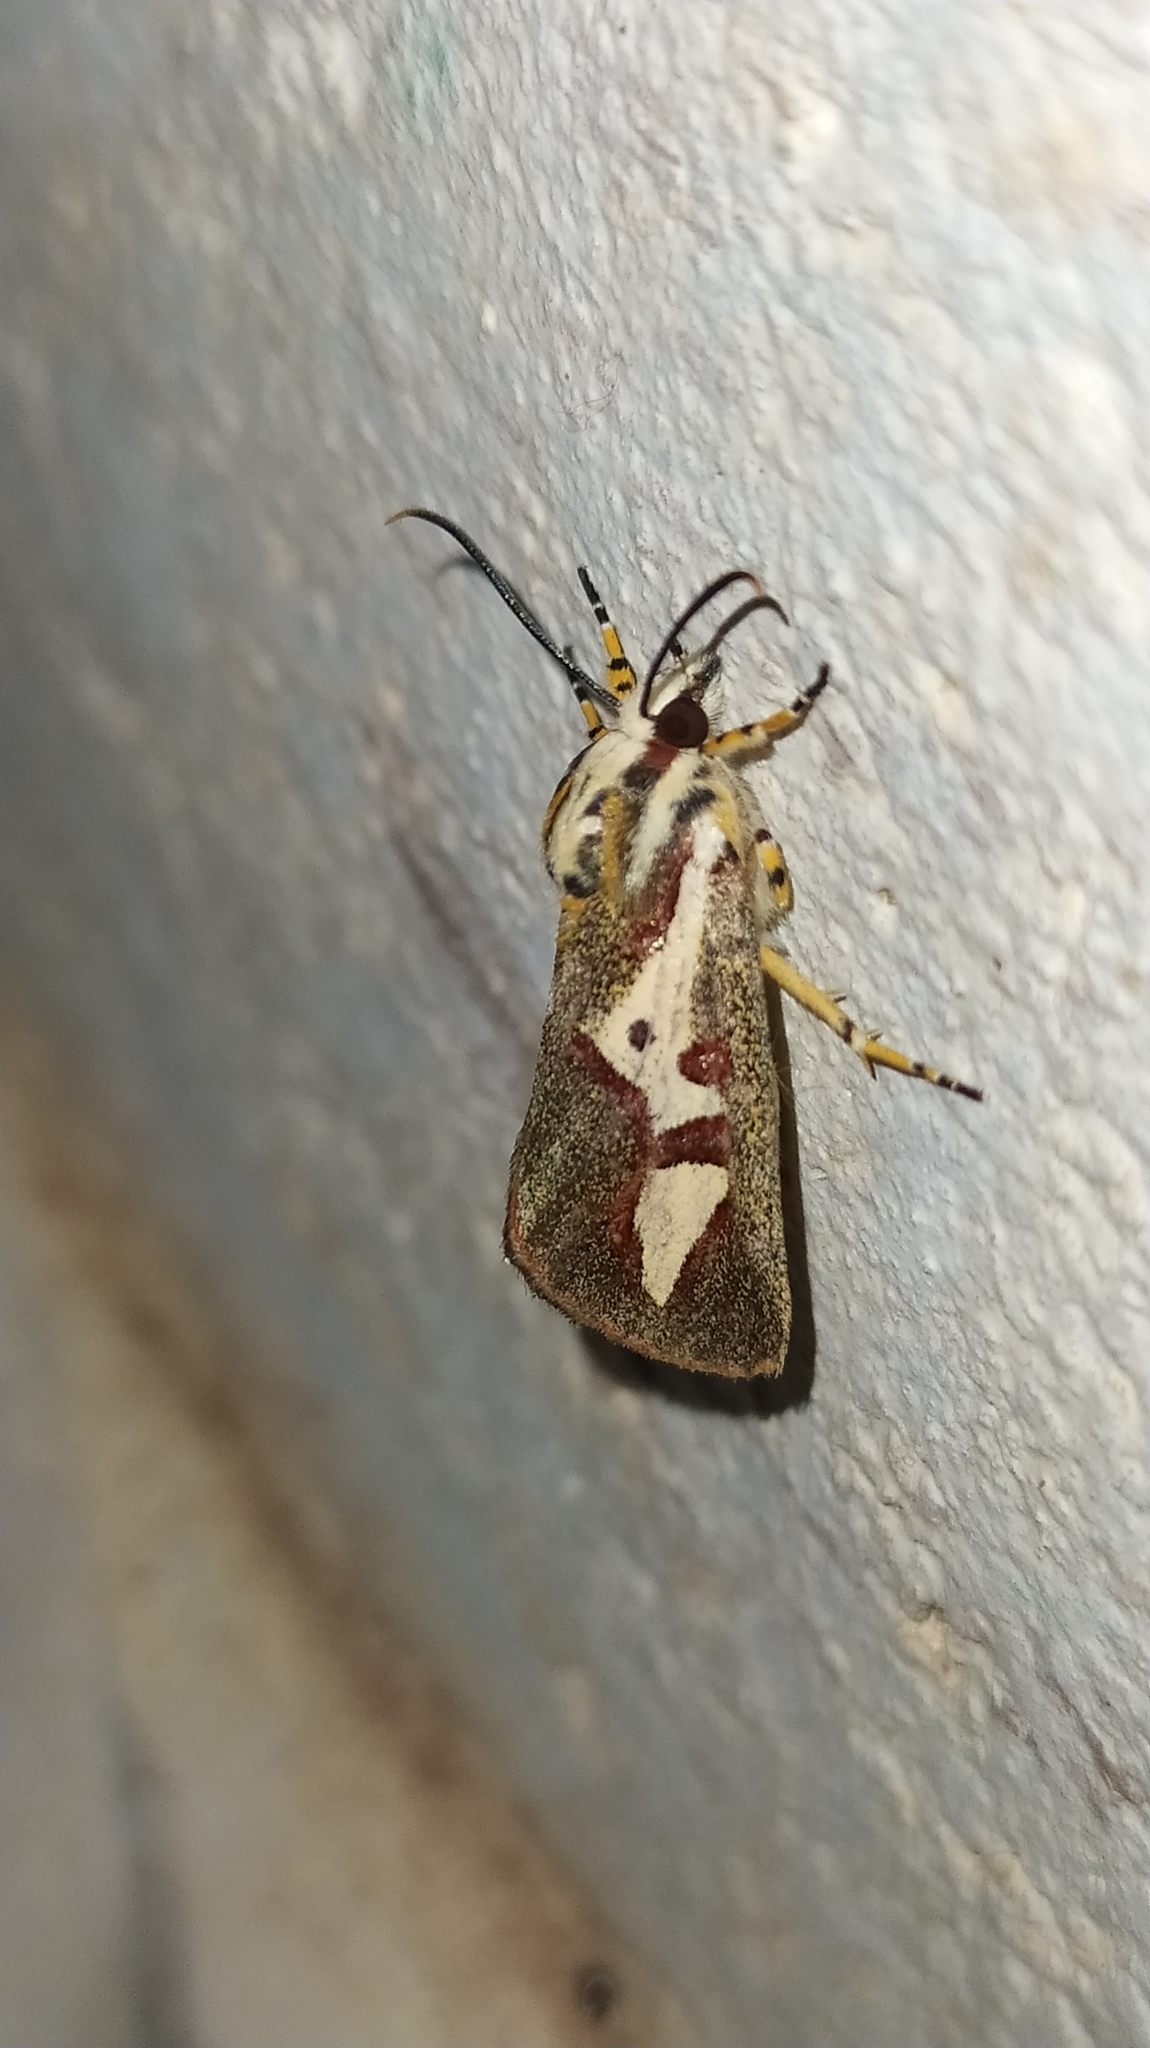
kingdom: Animalia
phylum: Arthropoda
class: Insecta
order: Lepidoptera
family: Noctuidae
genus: Aegocera
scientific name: Aegocera venulia
